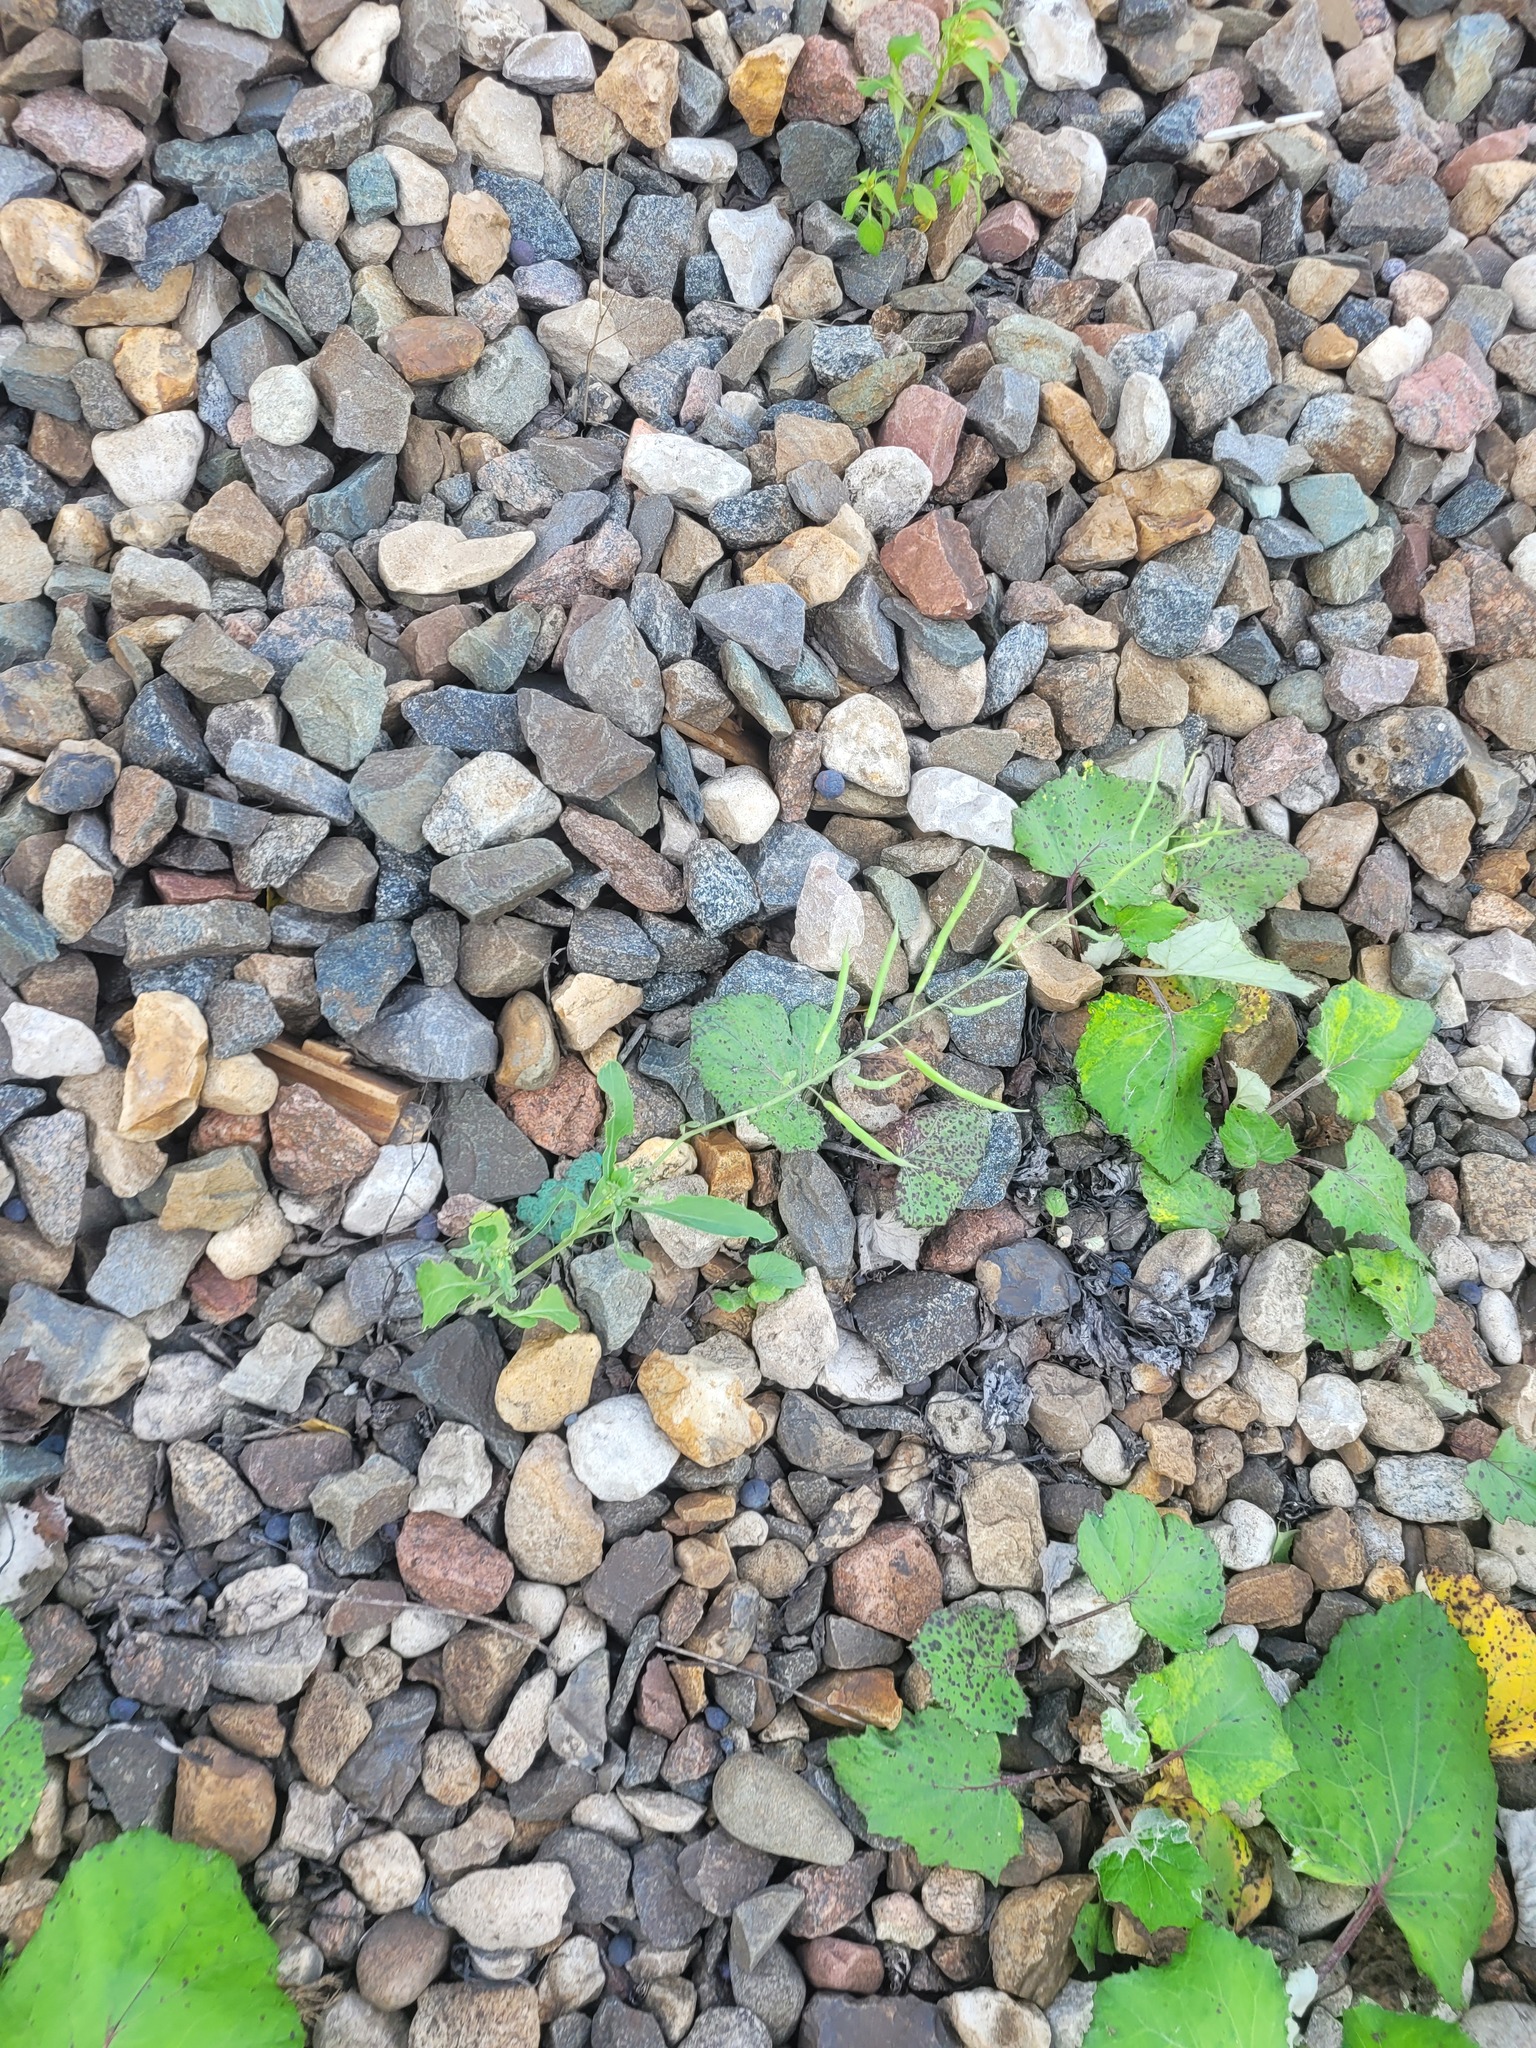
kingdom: Plantae
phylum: Tracheophyta
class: Magnoliopsida
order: Brassicales
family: Brassicaceae
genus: Brassica
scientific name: Brassica napus
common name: Rape
